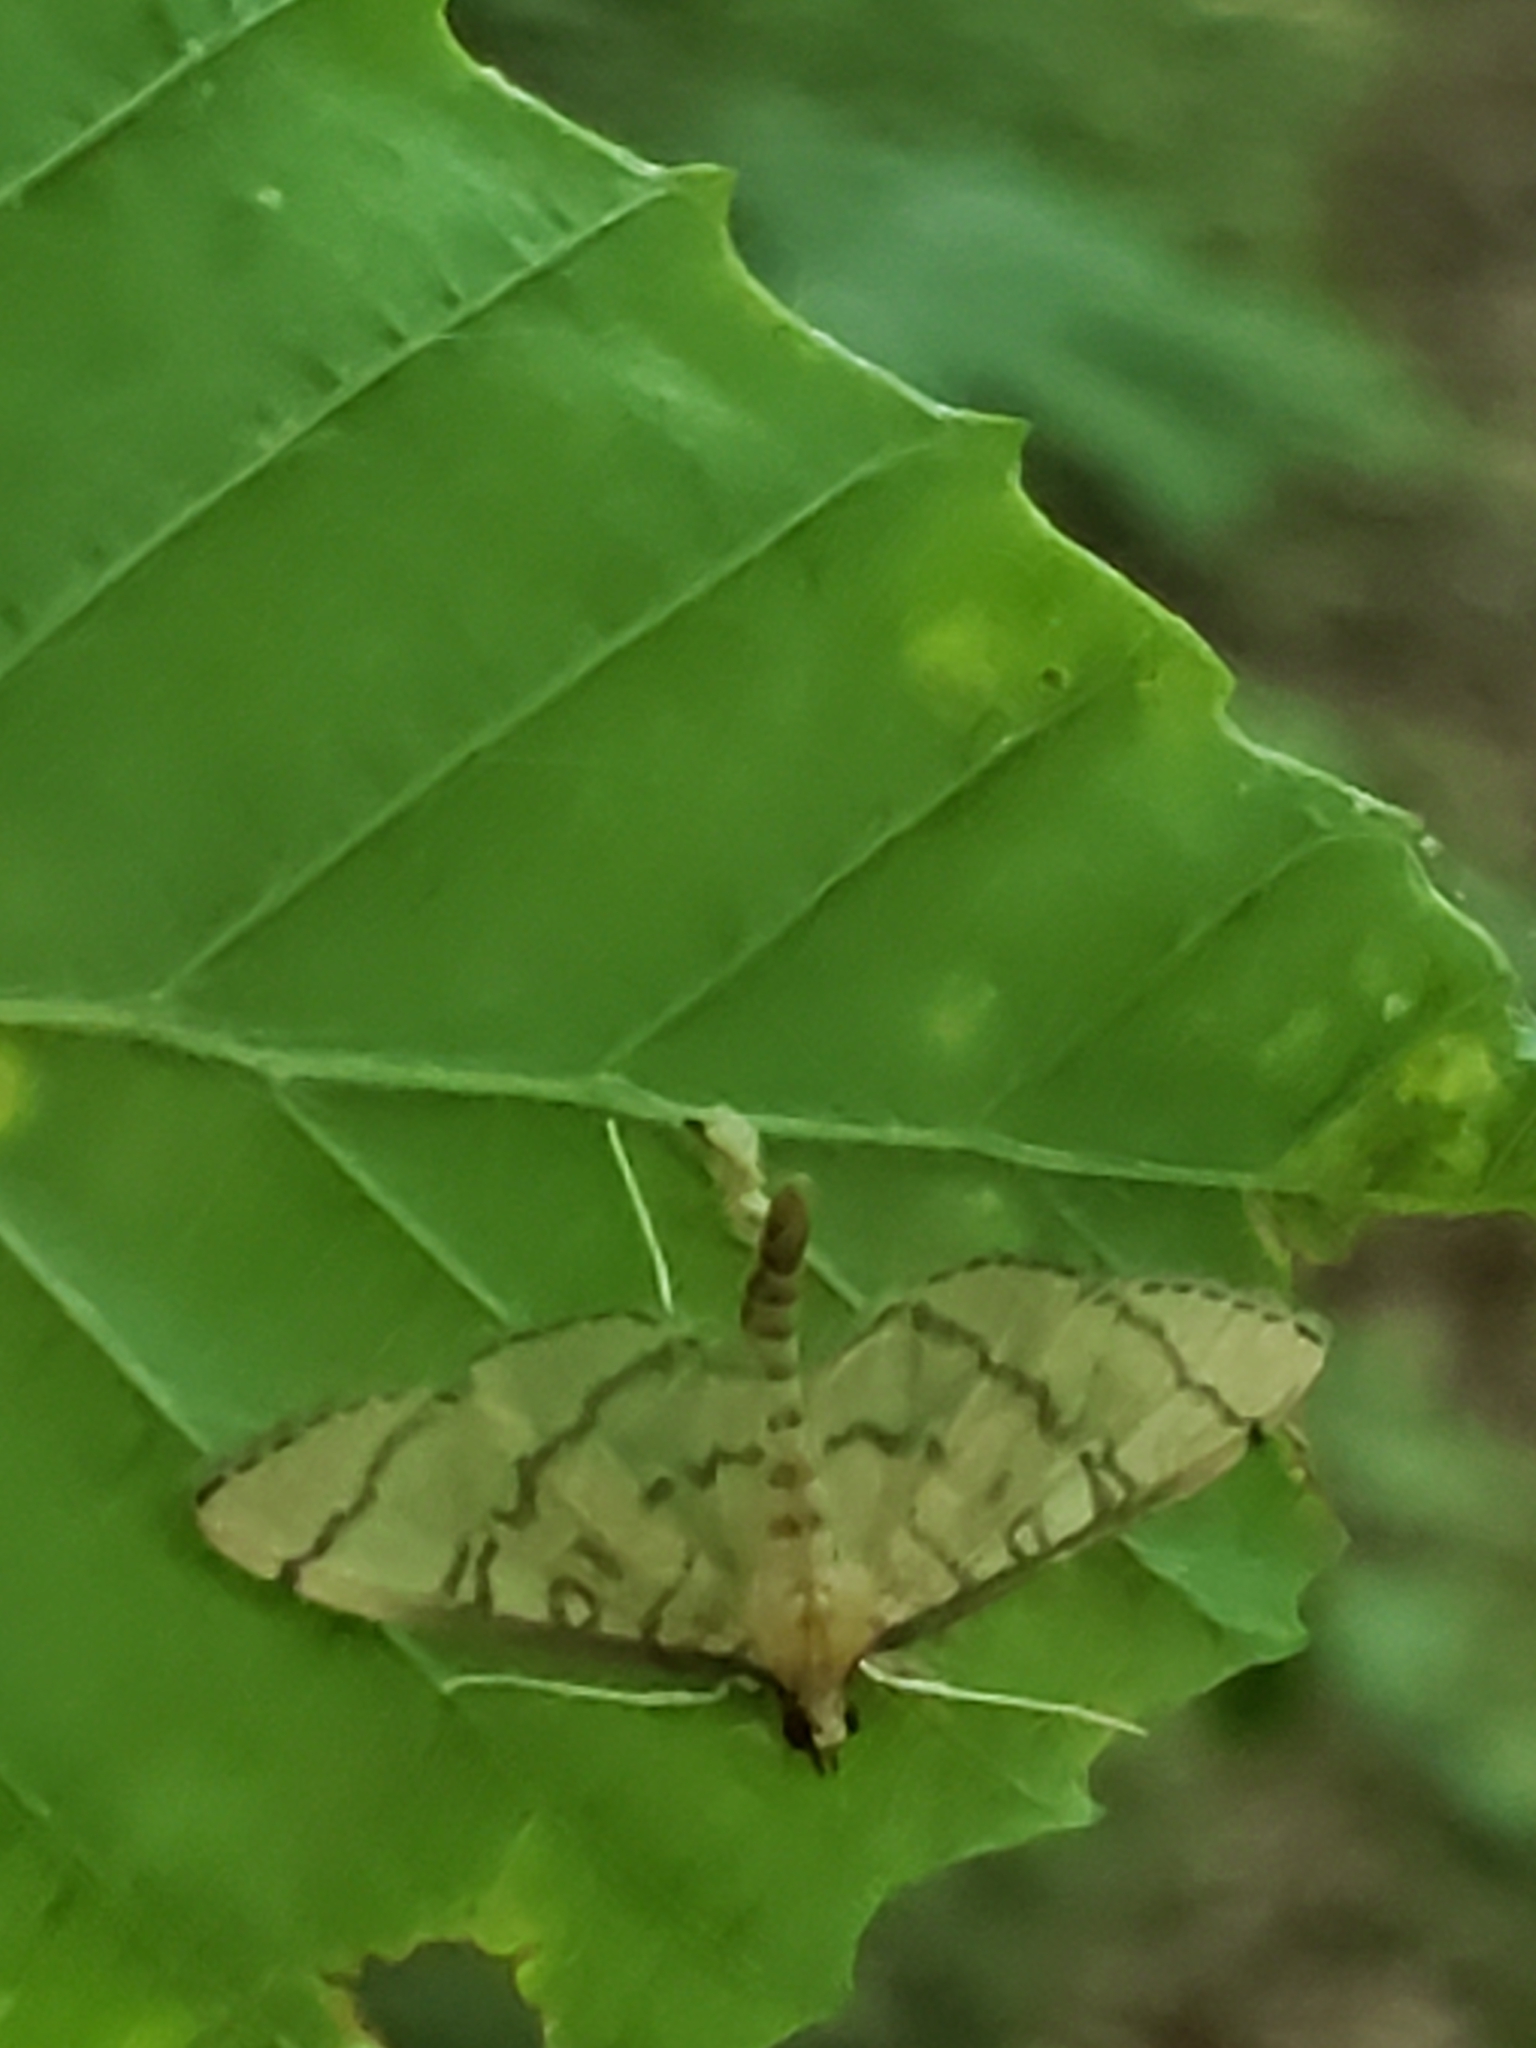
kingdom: Animalia
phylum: Arthropoda
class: Insecta
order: Lepidoptera
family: Crambidae
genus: Lamprosema
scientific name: Lamprosema Blepharomastix ranalis
